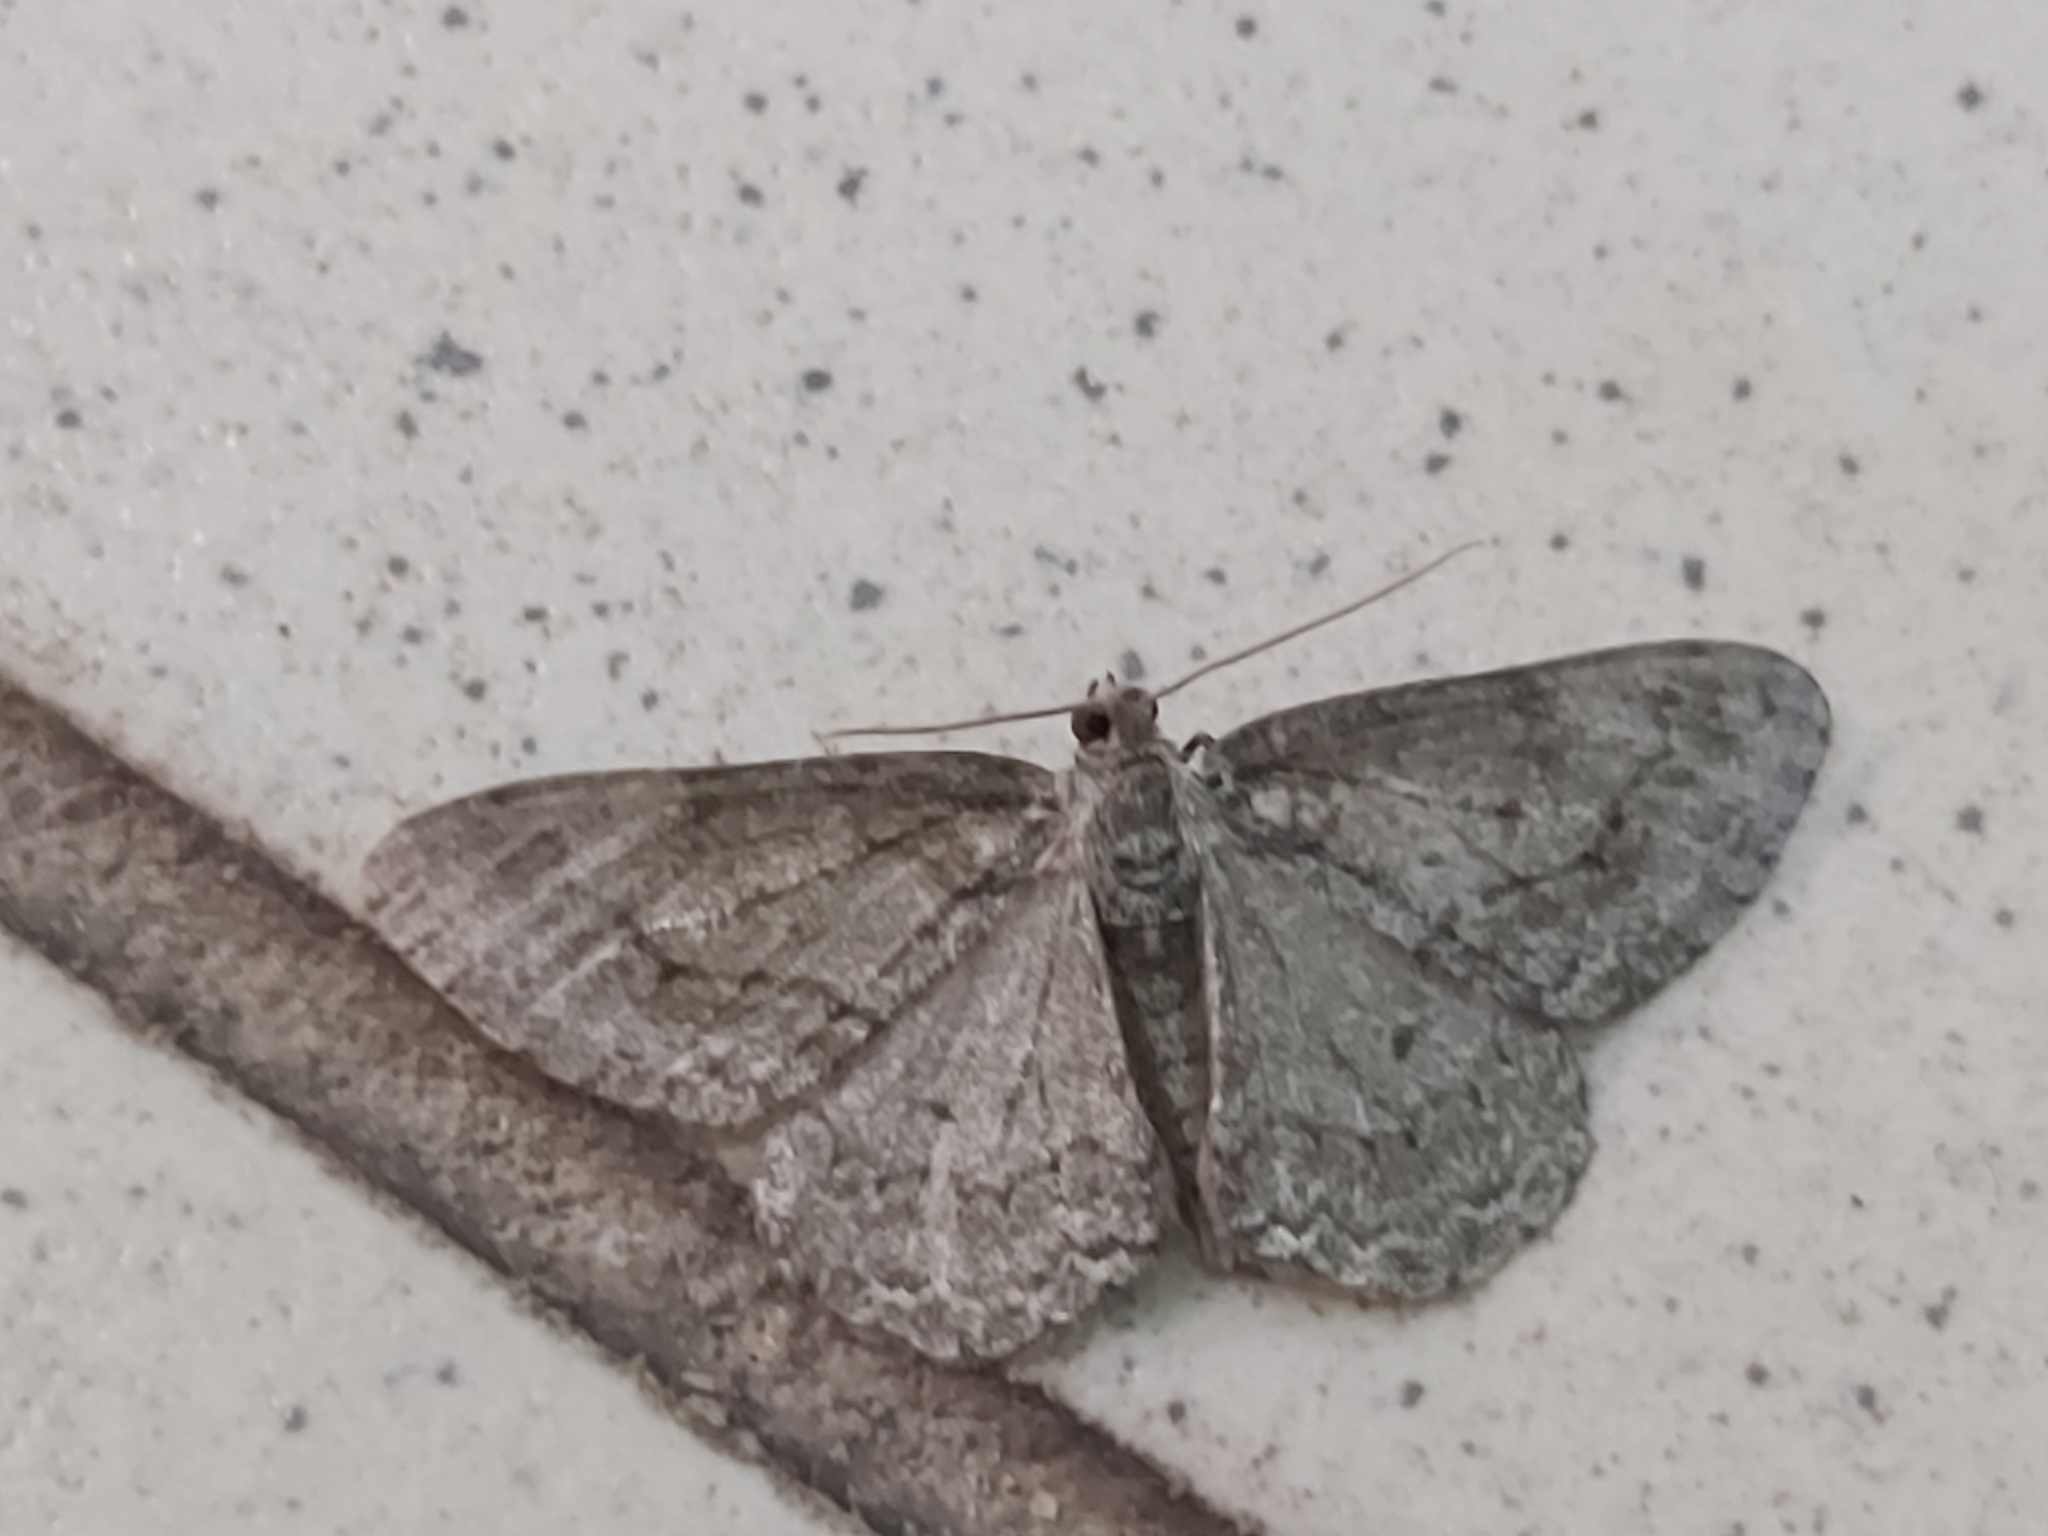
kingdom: Animalia
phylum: Arthropoda
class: Insecta
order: Lepidoptera
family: Geometridae
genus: Ectropis
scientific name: Ectropis crepuscularia
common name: Engrailed
